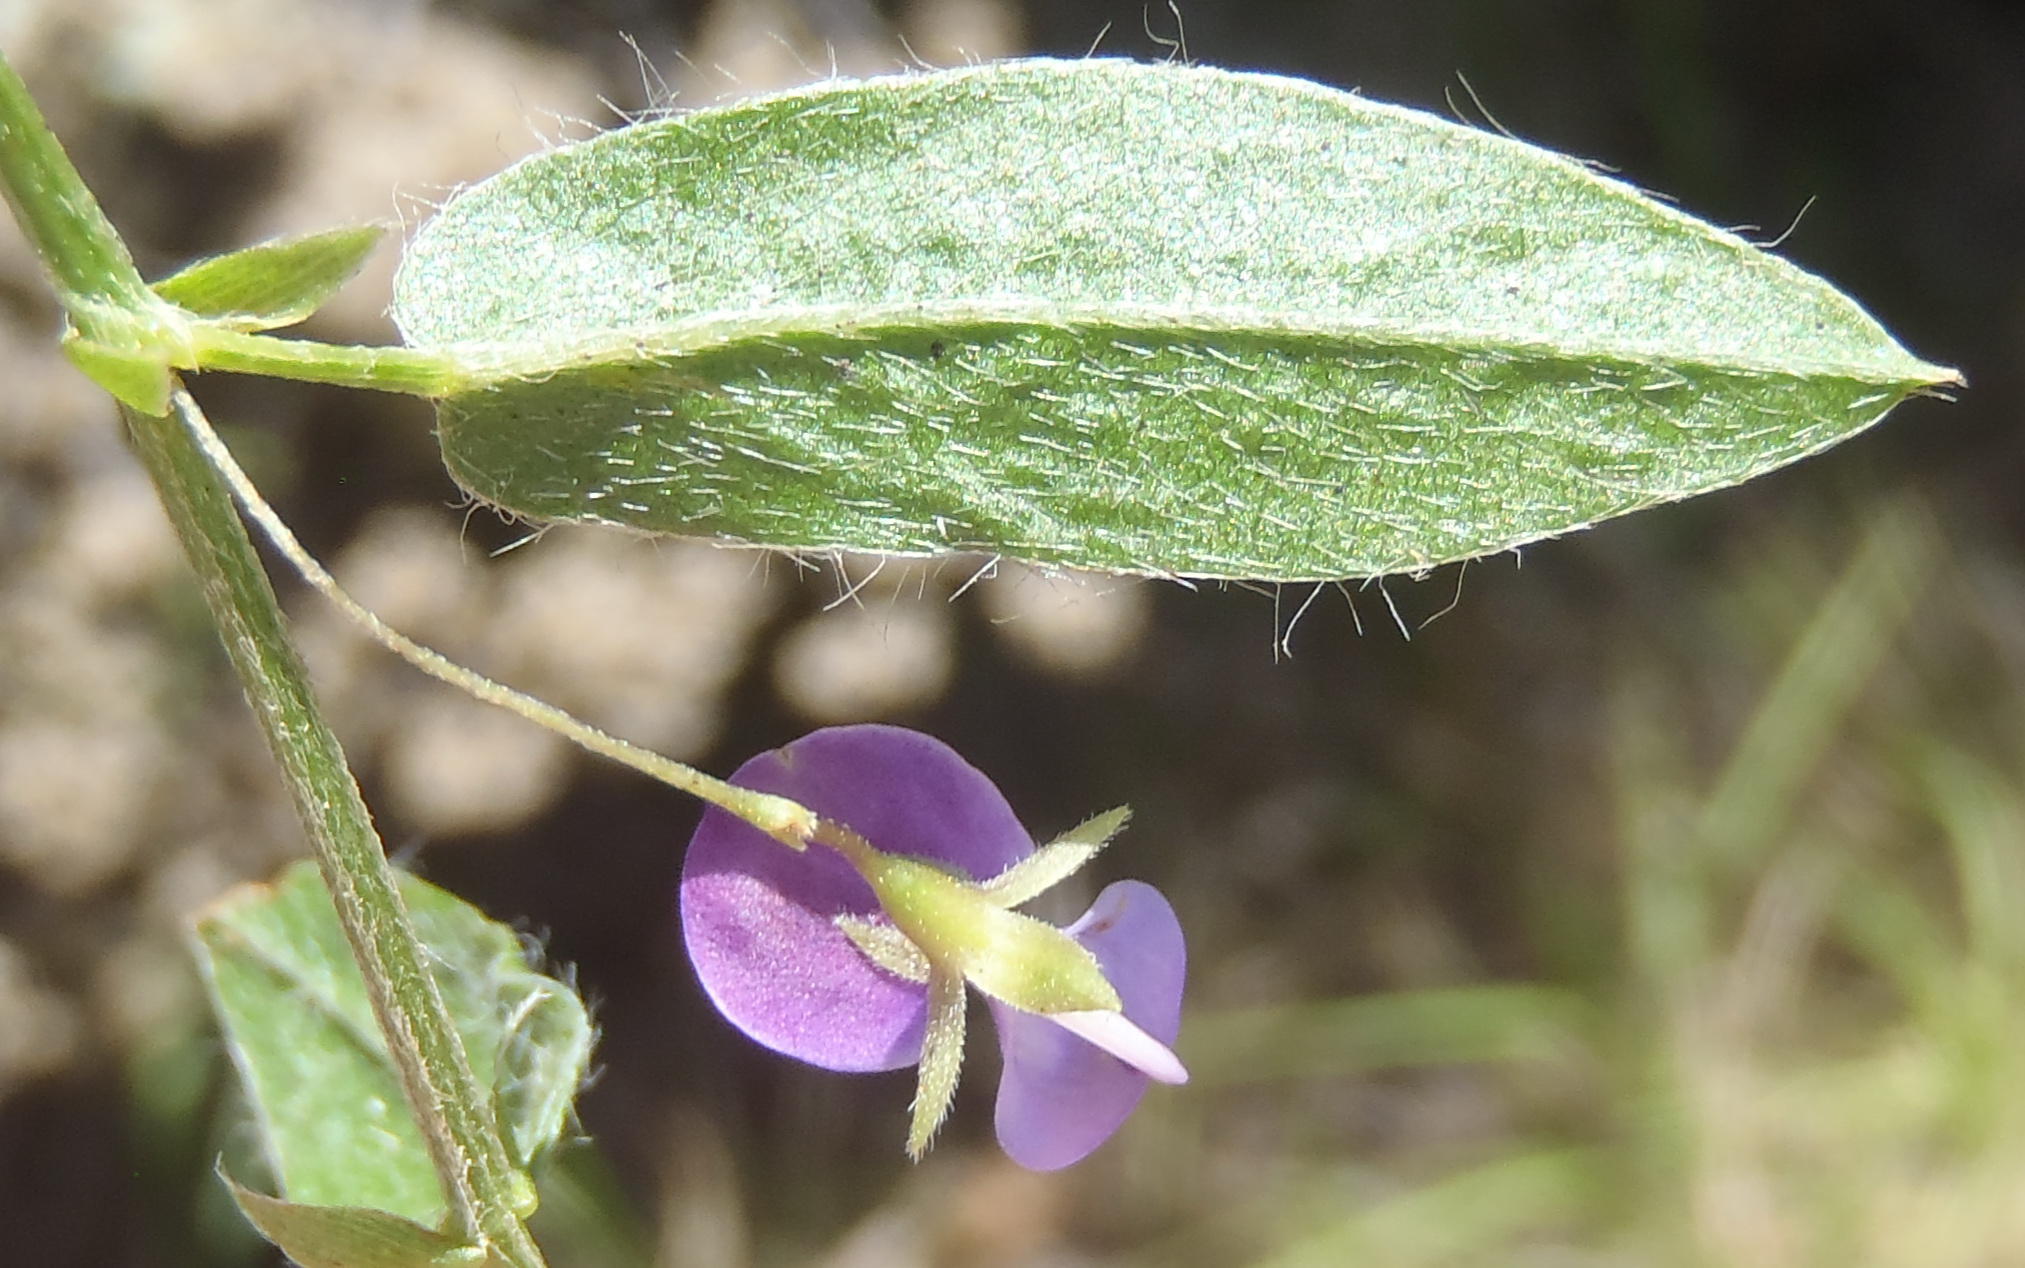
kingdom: Plantae
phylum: Tracheophyta
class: Magnoliopsida
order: Fabales
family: Fabaceae
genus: Psoralea
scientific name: Psoralea plauta
